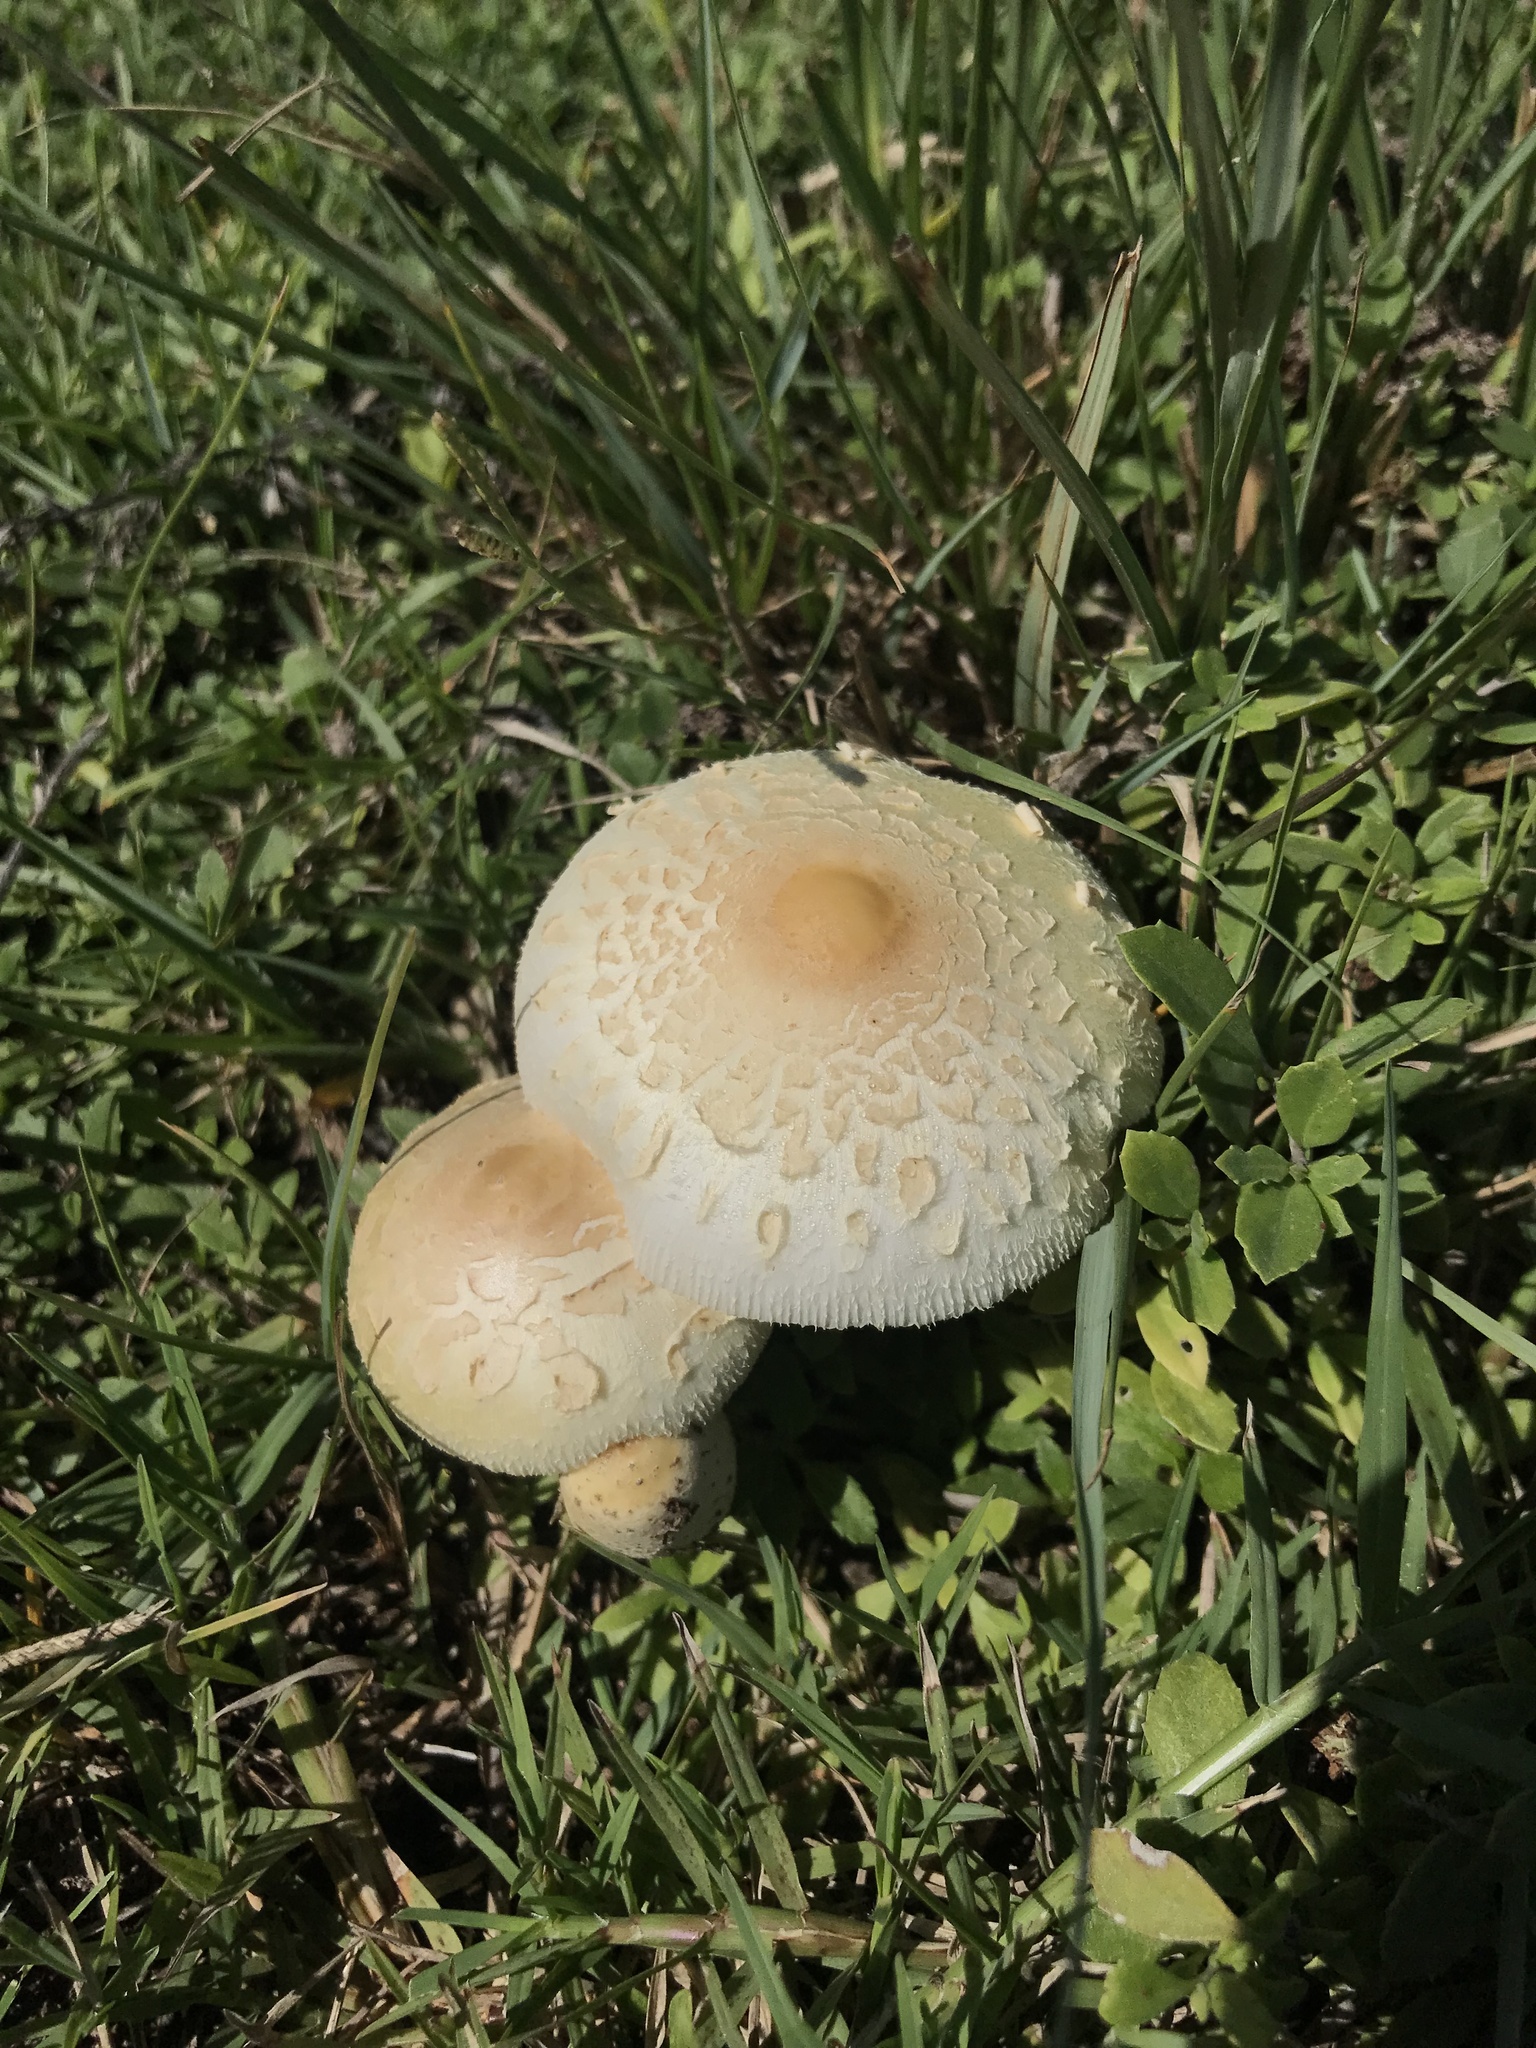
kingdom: Fungi
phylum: Basidiomycota
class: Agaricomycetes
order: Agaricales
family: Agaricaceae
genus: Chlorophyllum
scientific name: Chlorophyllum hortense
